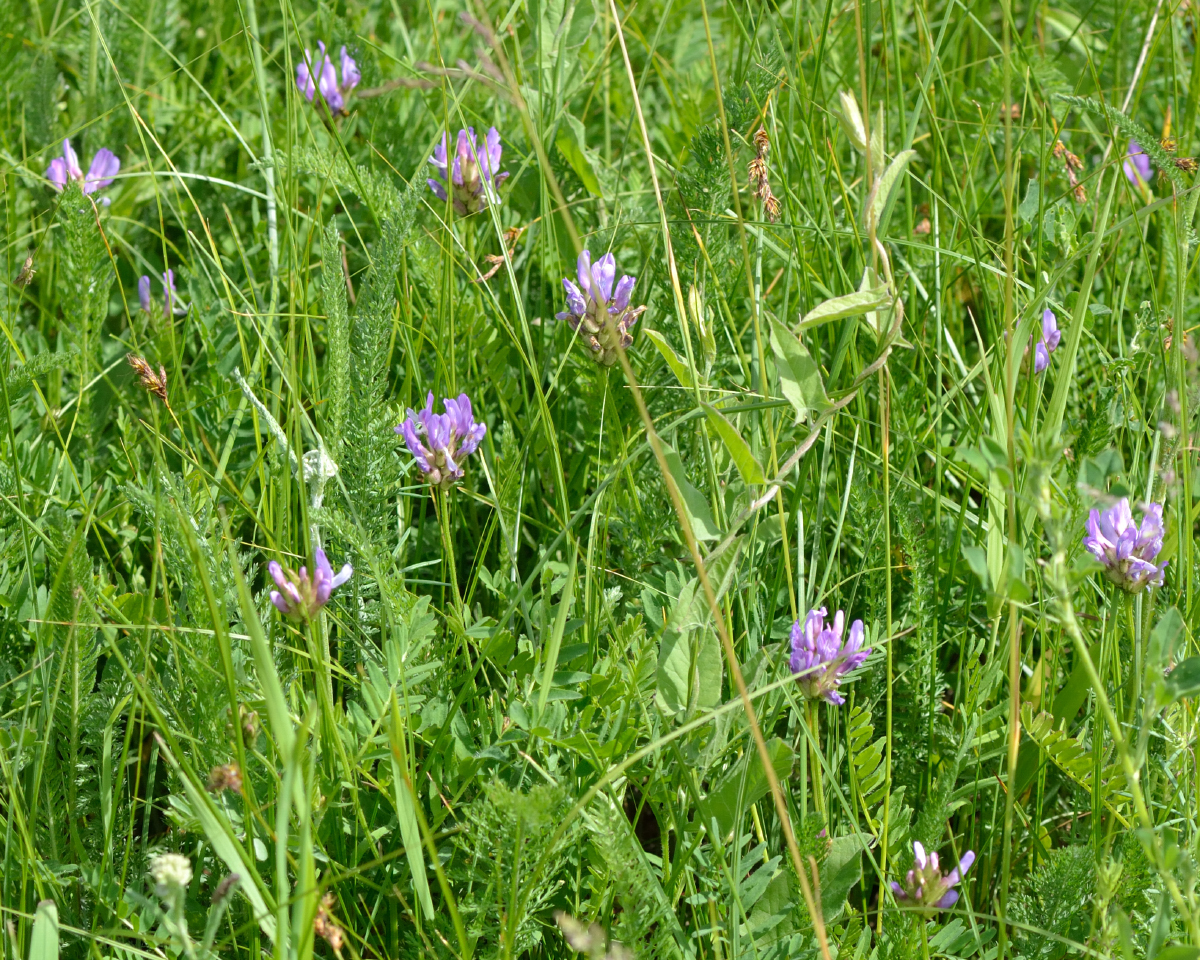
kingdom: Plantae
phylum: Tracheophyta
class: Magnoliopsida
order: Fabales
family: Fabaceae
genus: Astragalus
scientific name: Astragalus danicus
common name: Purple milk-vetch
